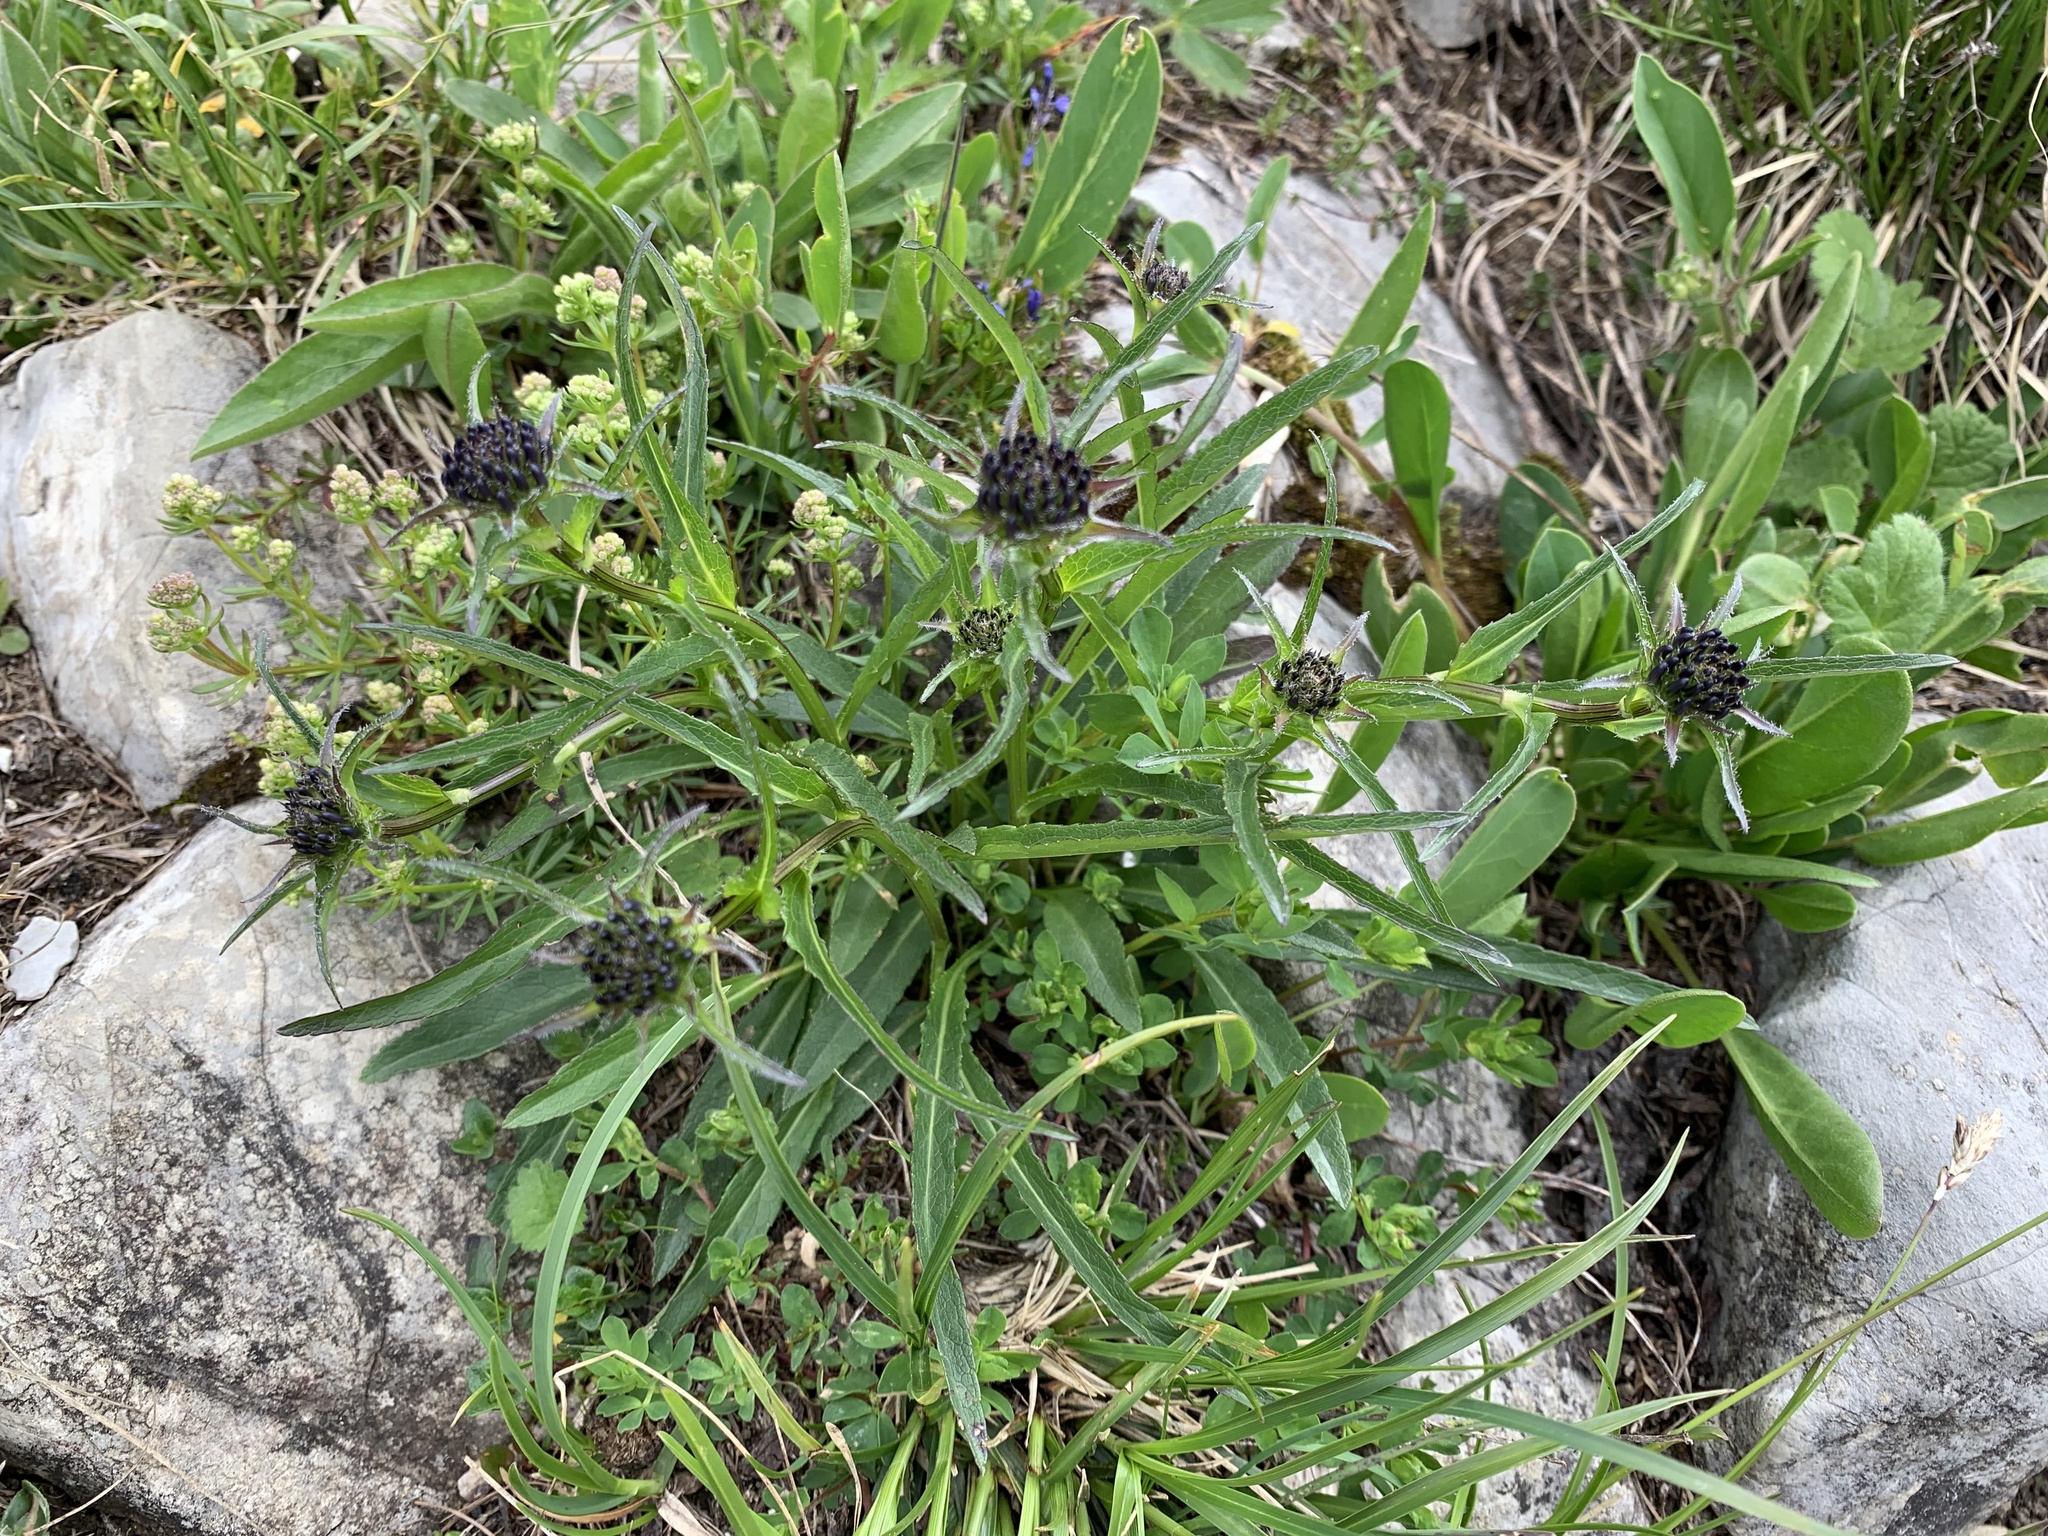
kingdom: Plantae
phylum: Tracheophyta
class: Magnoliopsida
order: Asterales
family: Campanulaceae
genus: Phyteuma
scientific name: Phyteuma orbiculare
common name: Round-headed rampion
